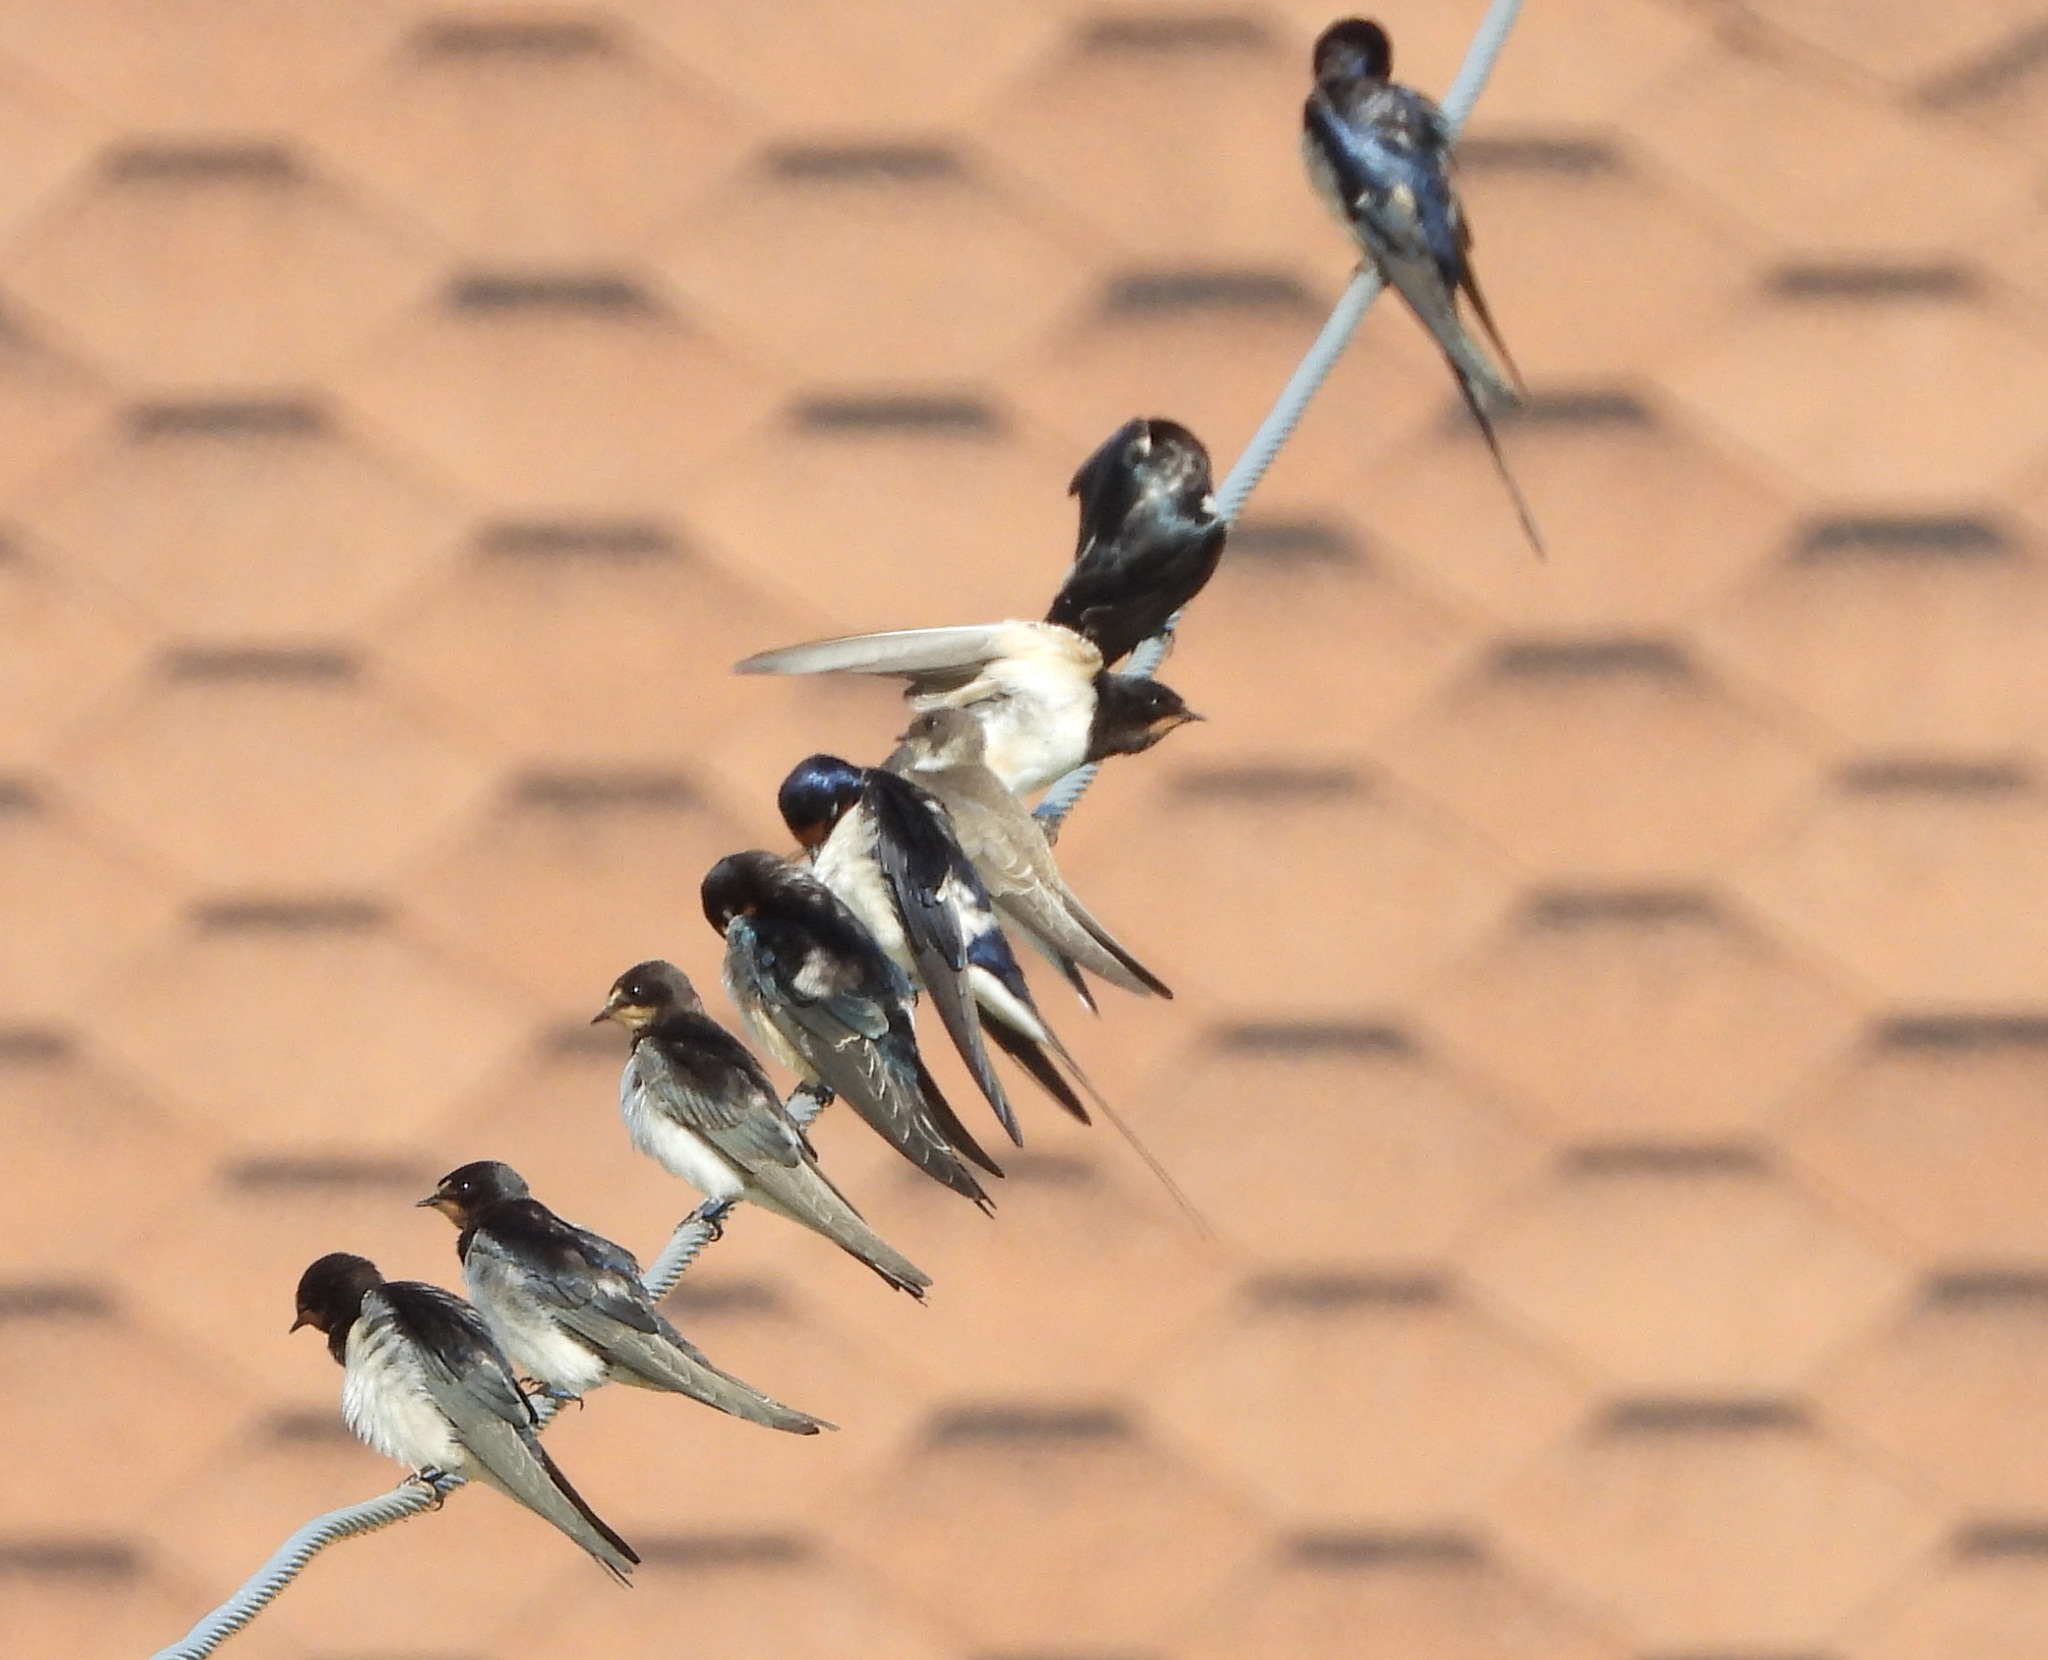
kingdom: Animalia
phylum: Chordata
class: Aves
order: Passeriformes
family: Hirundinidae
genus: Hirundo
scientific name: Hirundo rustica
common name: Barn swallow
